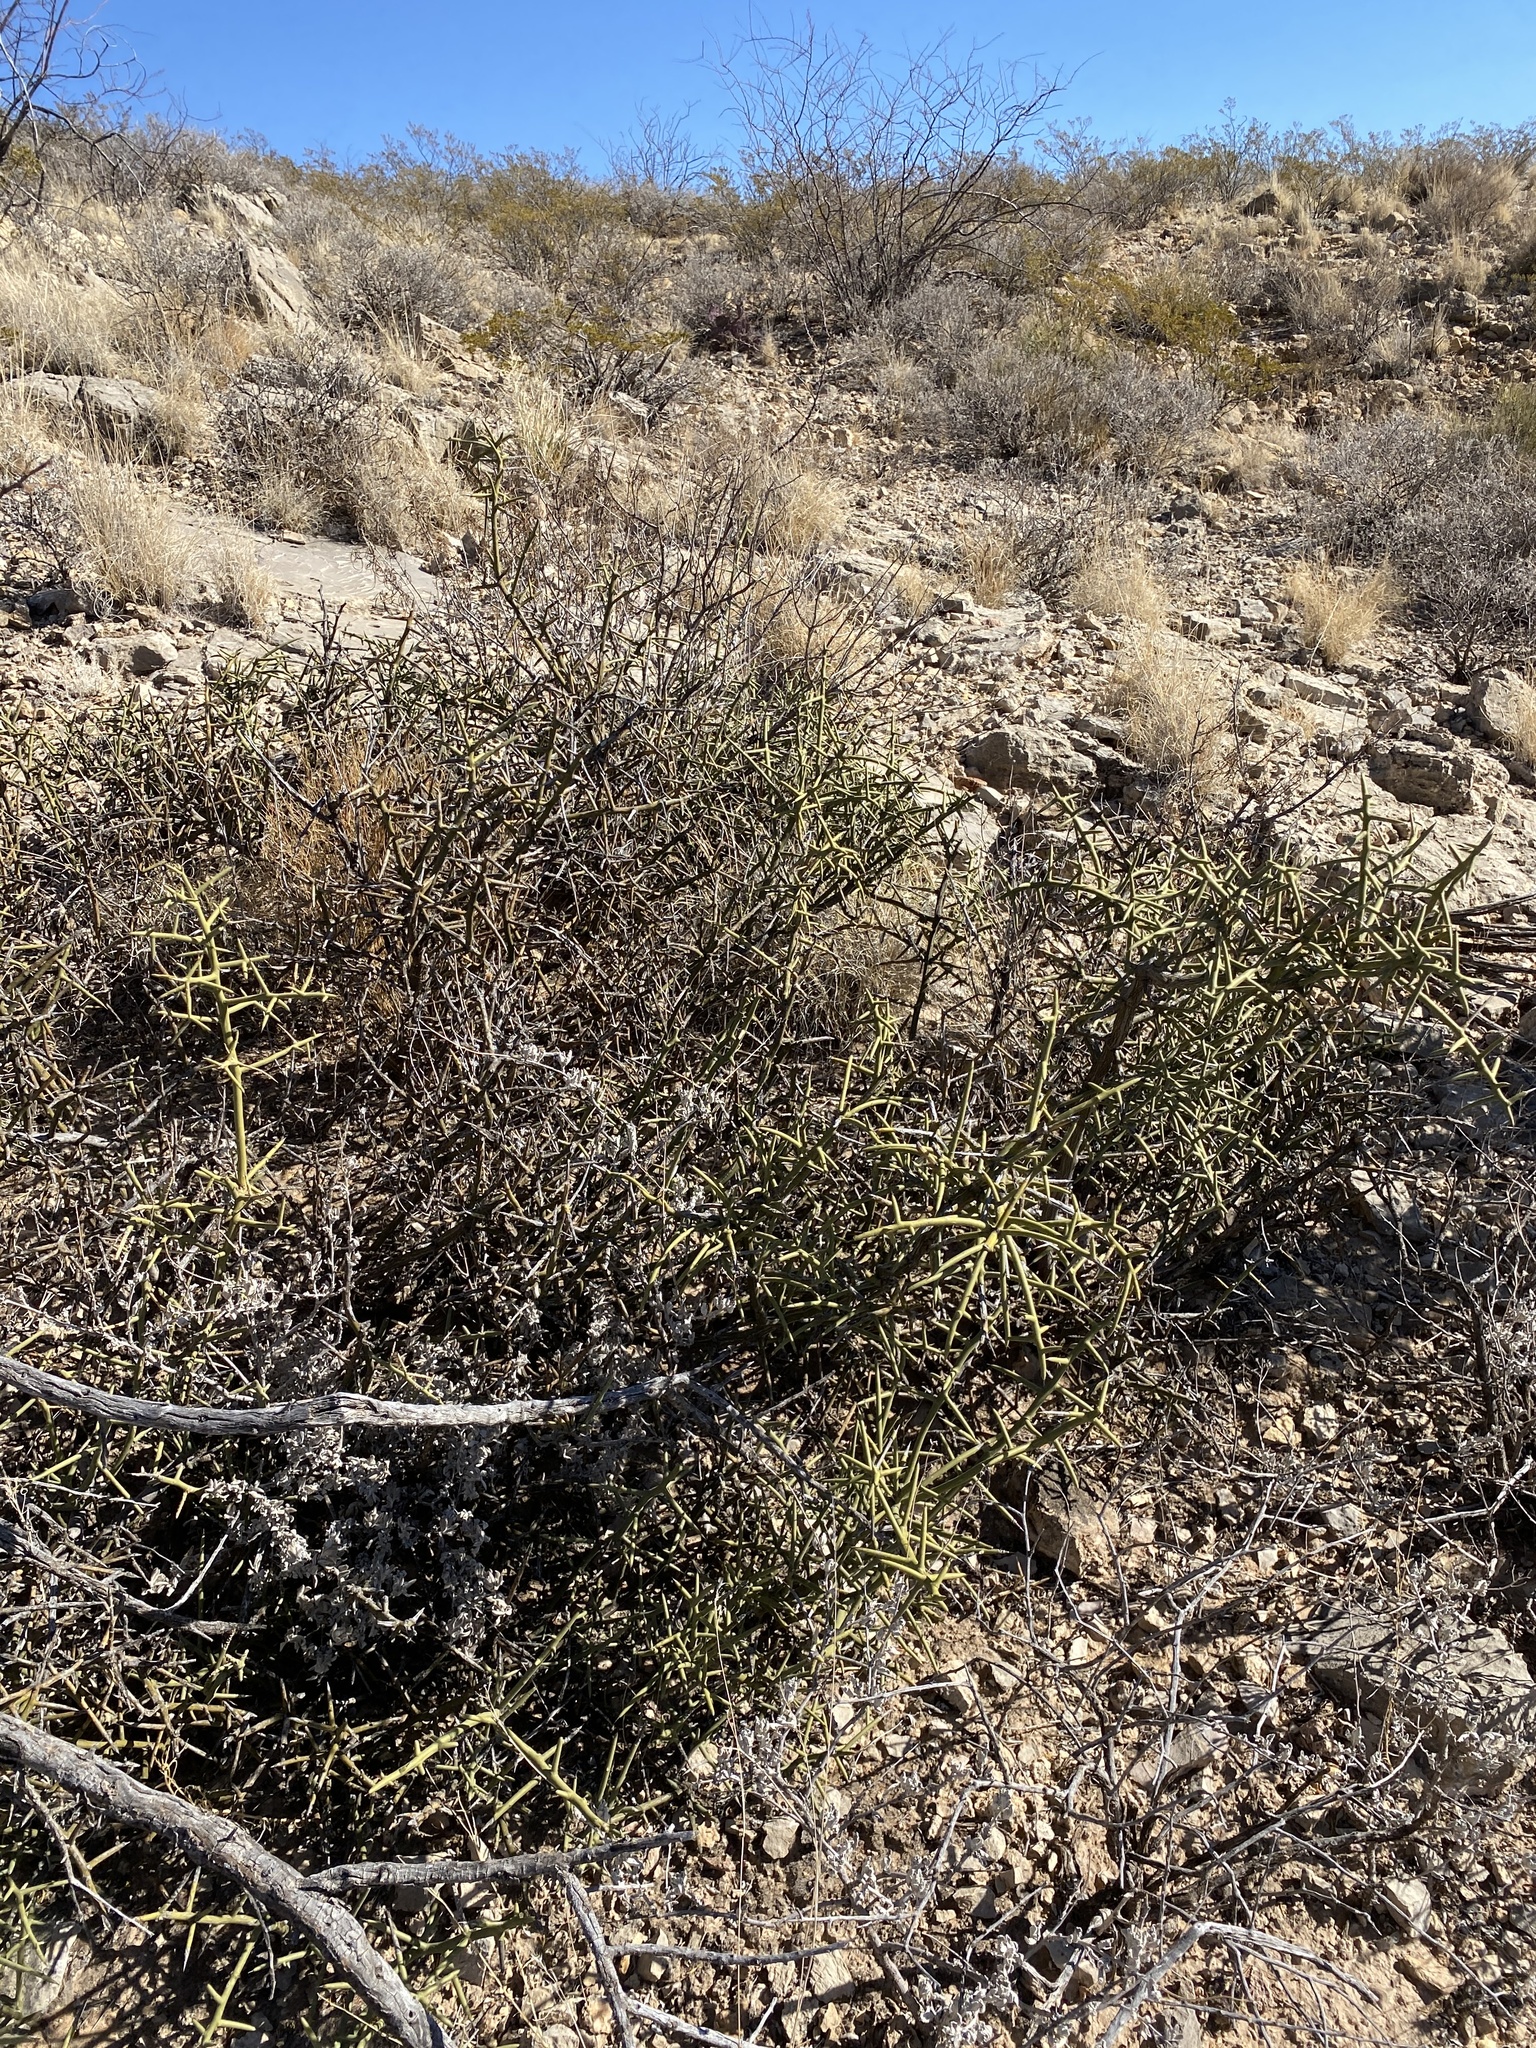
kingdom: Plantae
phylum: Tracheophyta
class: Magnoliopsida
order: Brassicales
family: Koeberliniaceae
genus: Koeberlinia
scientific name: Koeberlinia spinosa
